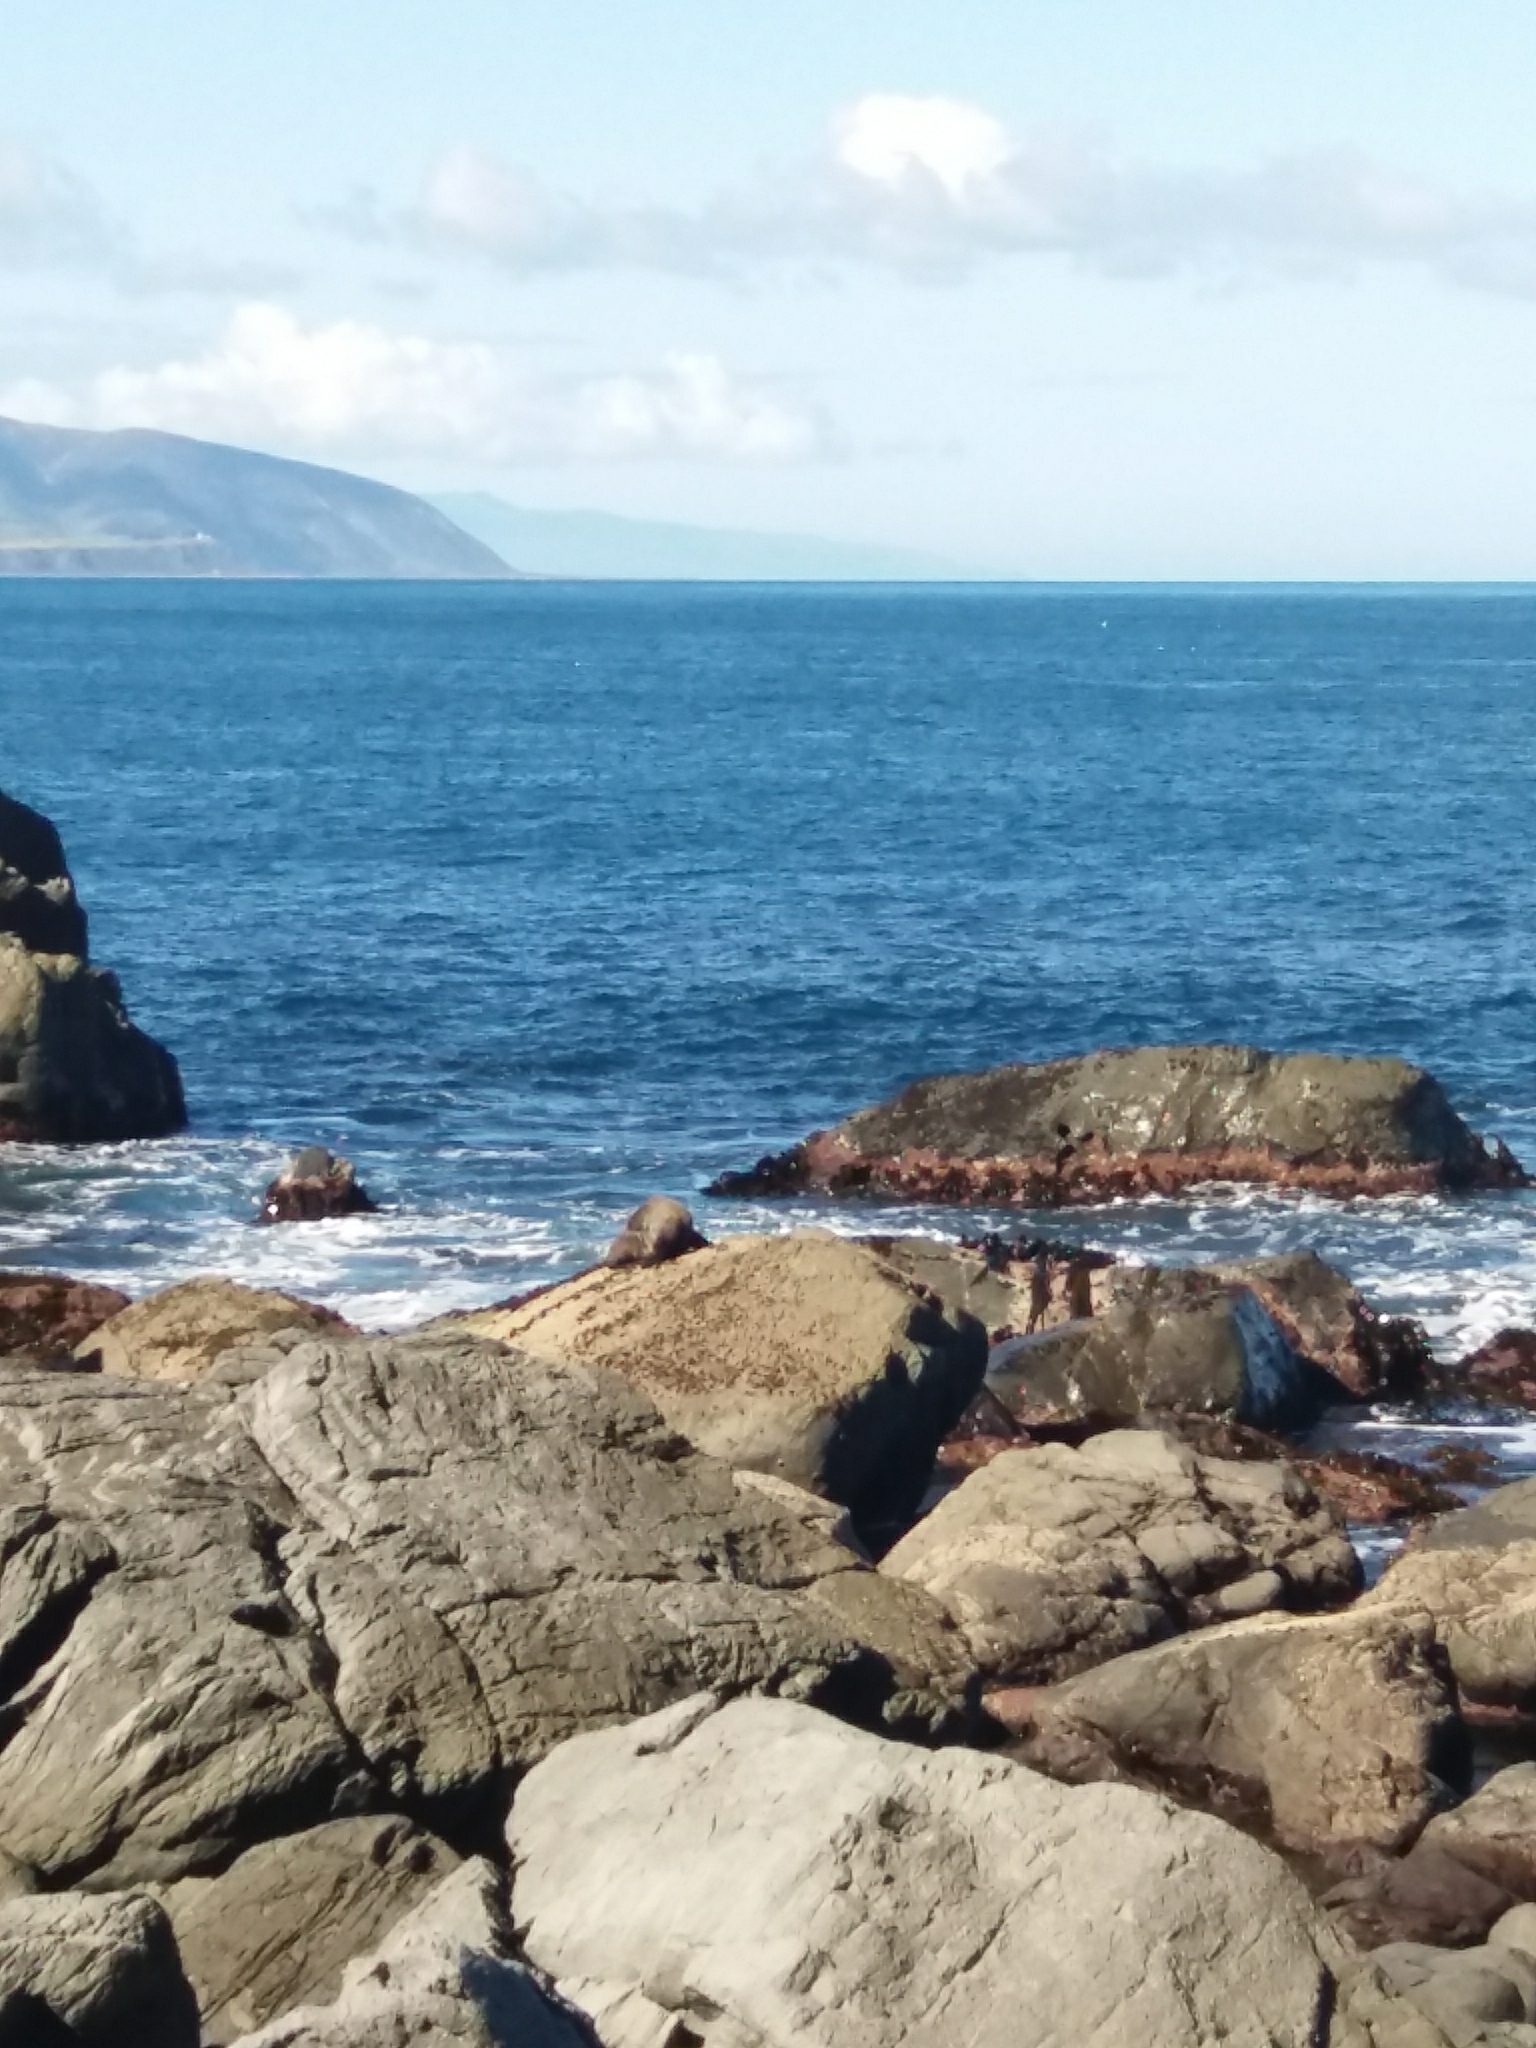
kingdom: Animalia
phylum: Chordata
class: Mammalia
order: Carnivora
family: Otariidae
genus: Arctocephalus
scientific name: Arctocephalus forsteri
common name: New zealand fur seal
